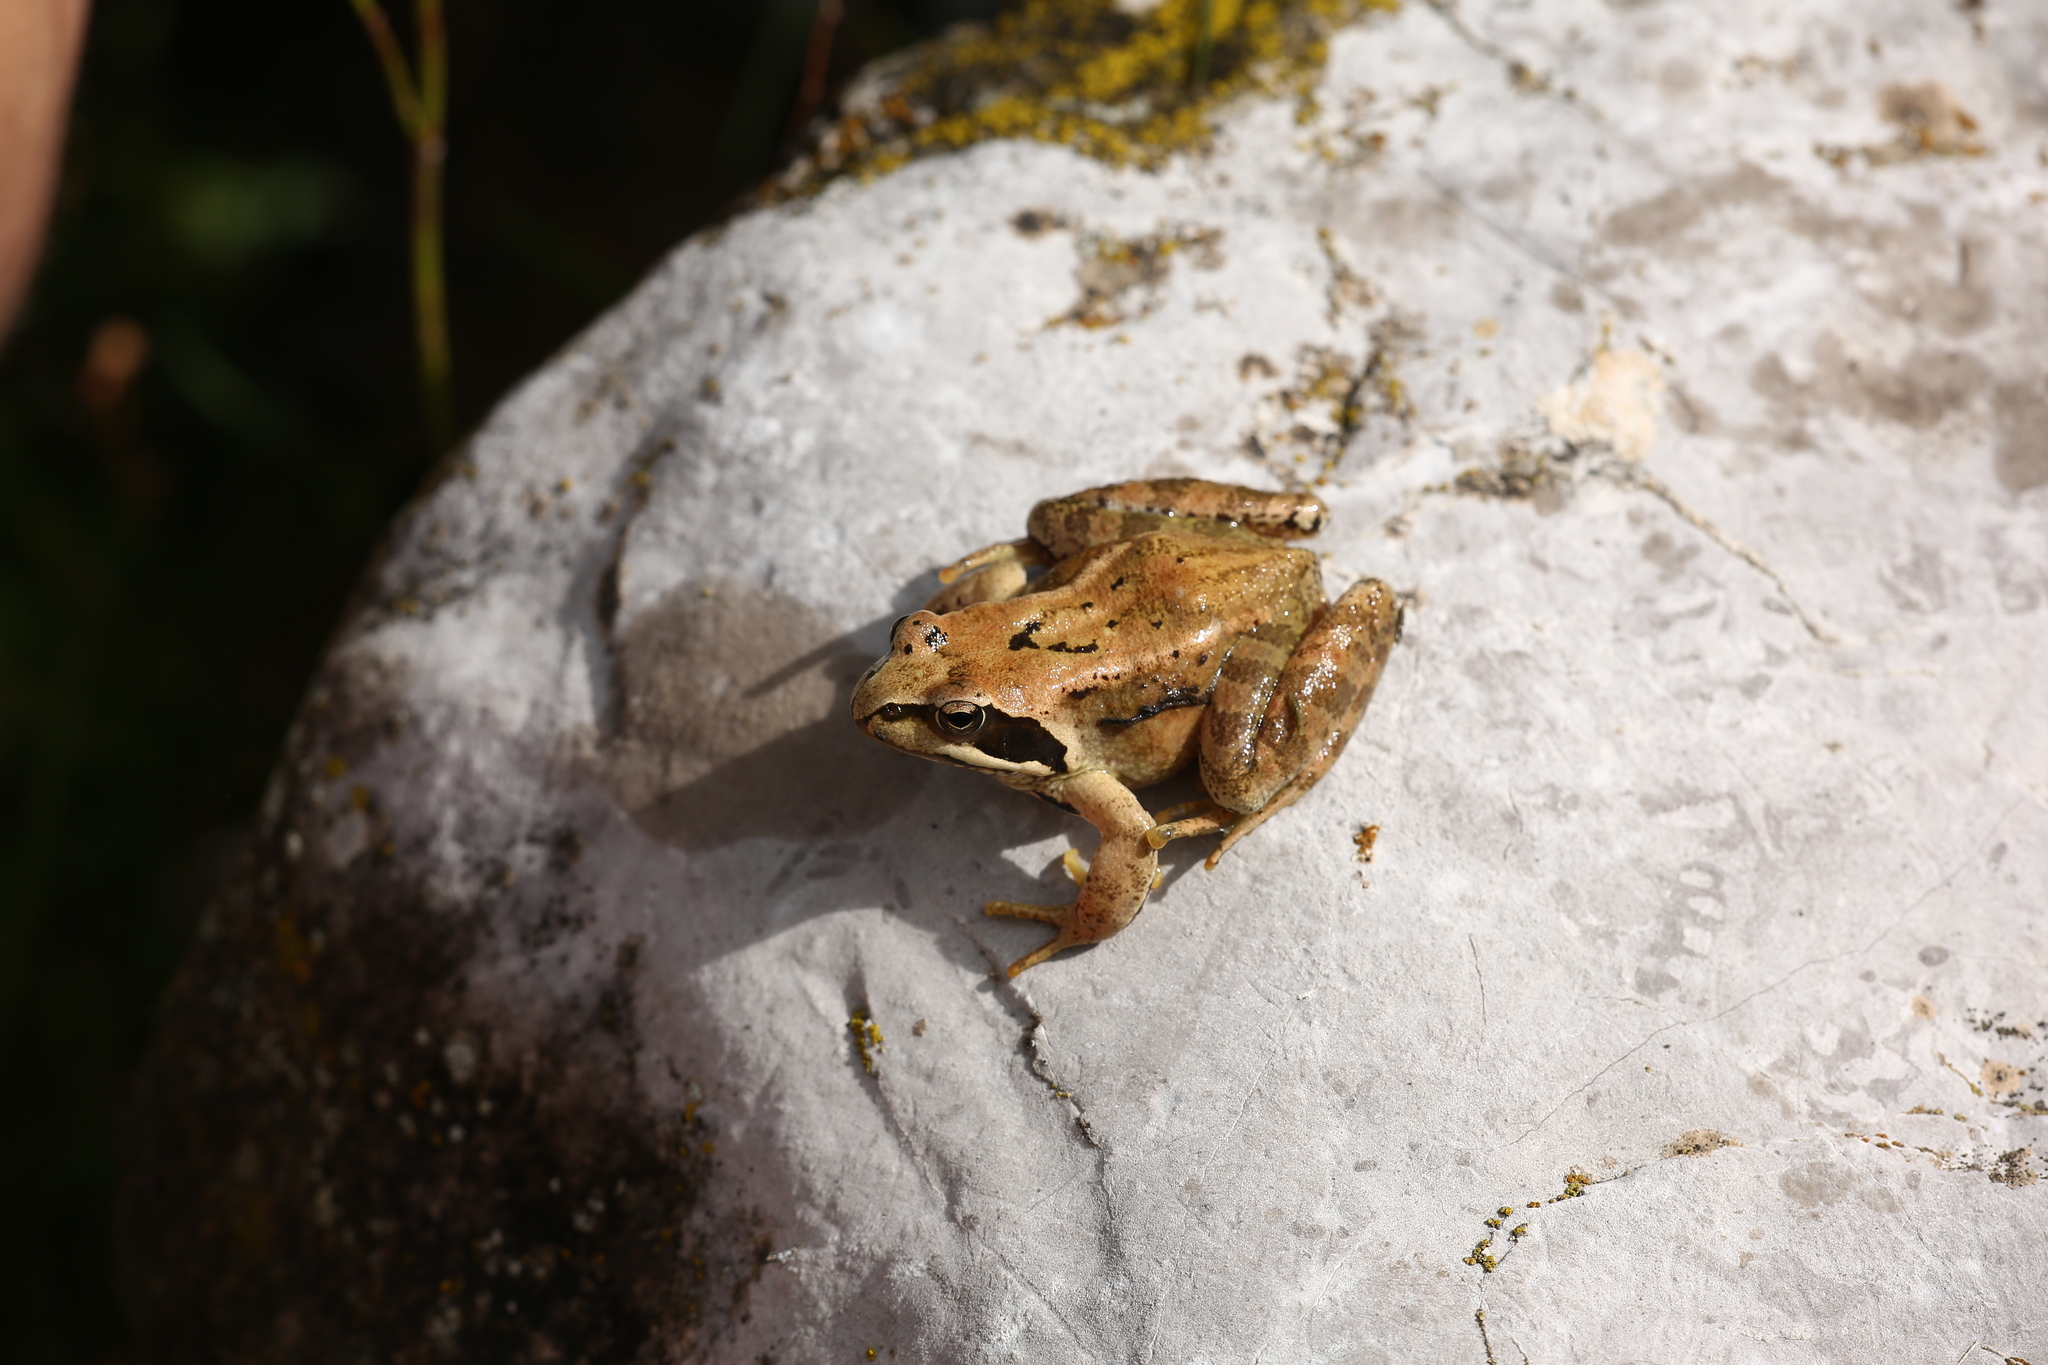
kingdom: Animalia
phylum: Chordata
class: Amphibia
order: Anura
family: Ranidae
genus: Rana
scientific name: Rana temporaria
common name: Common frog
